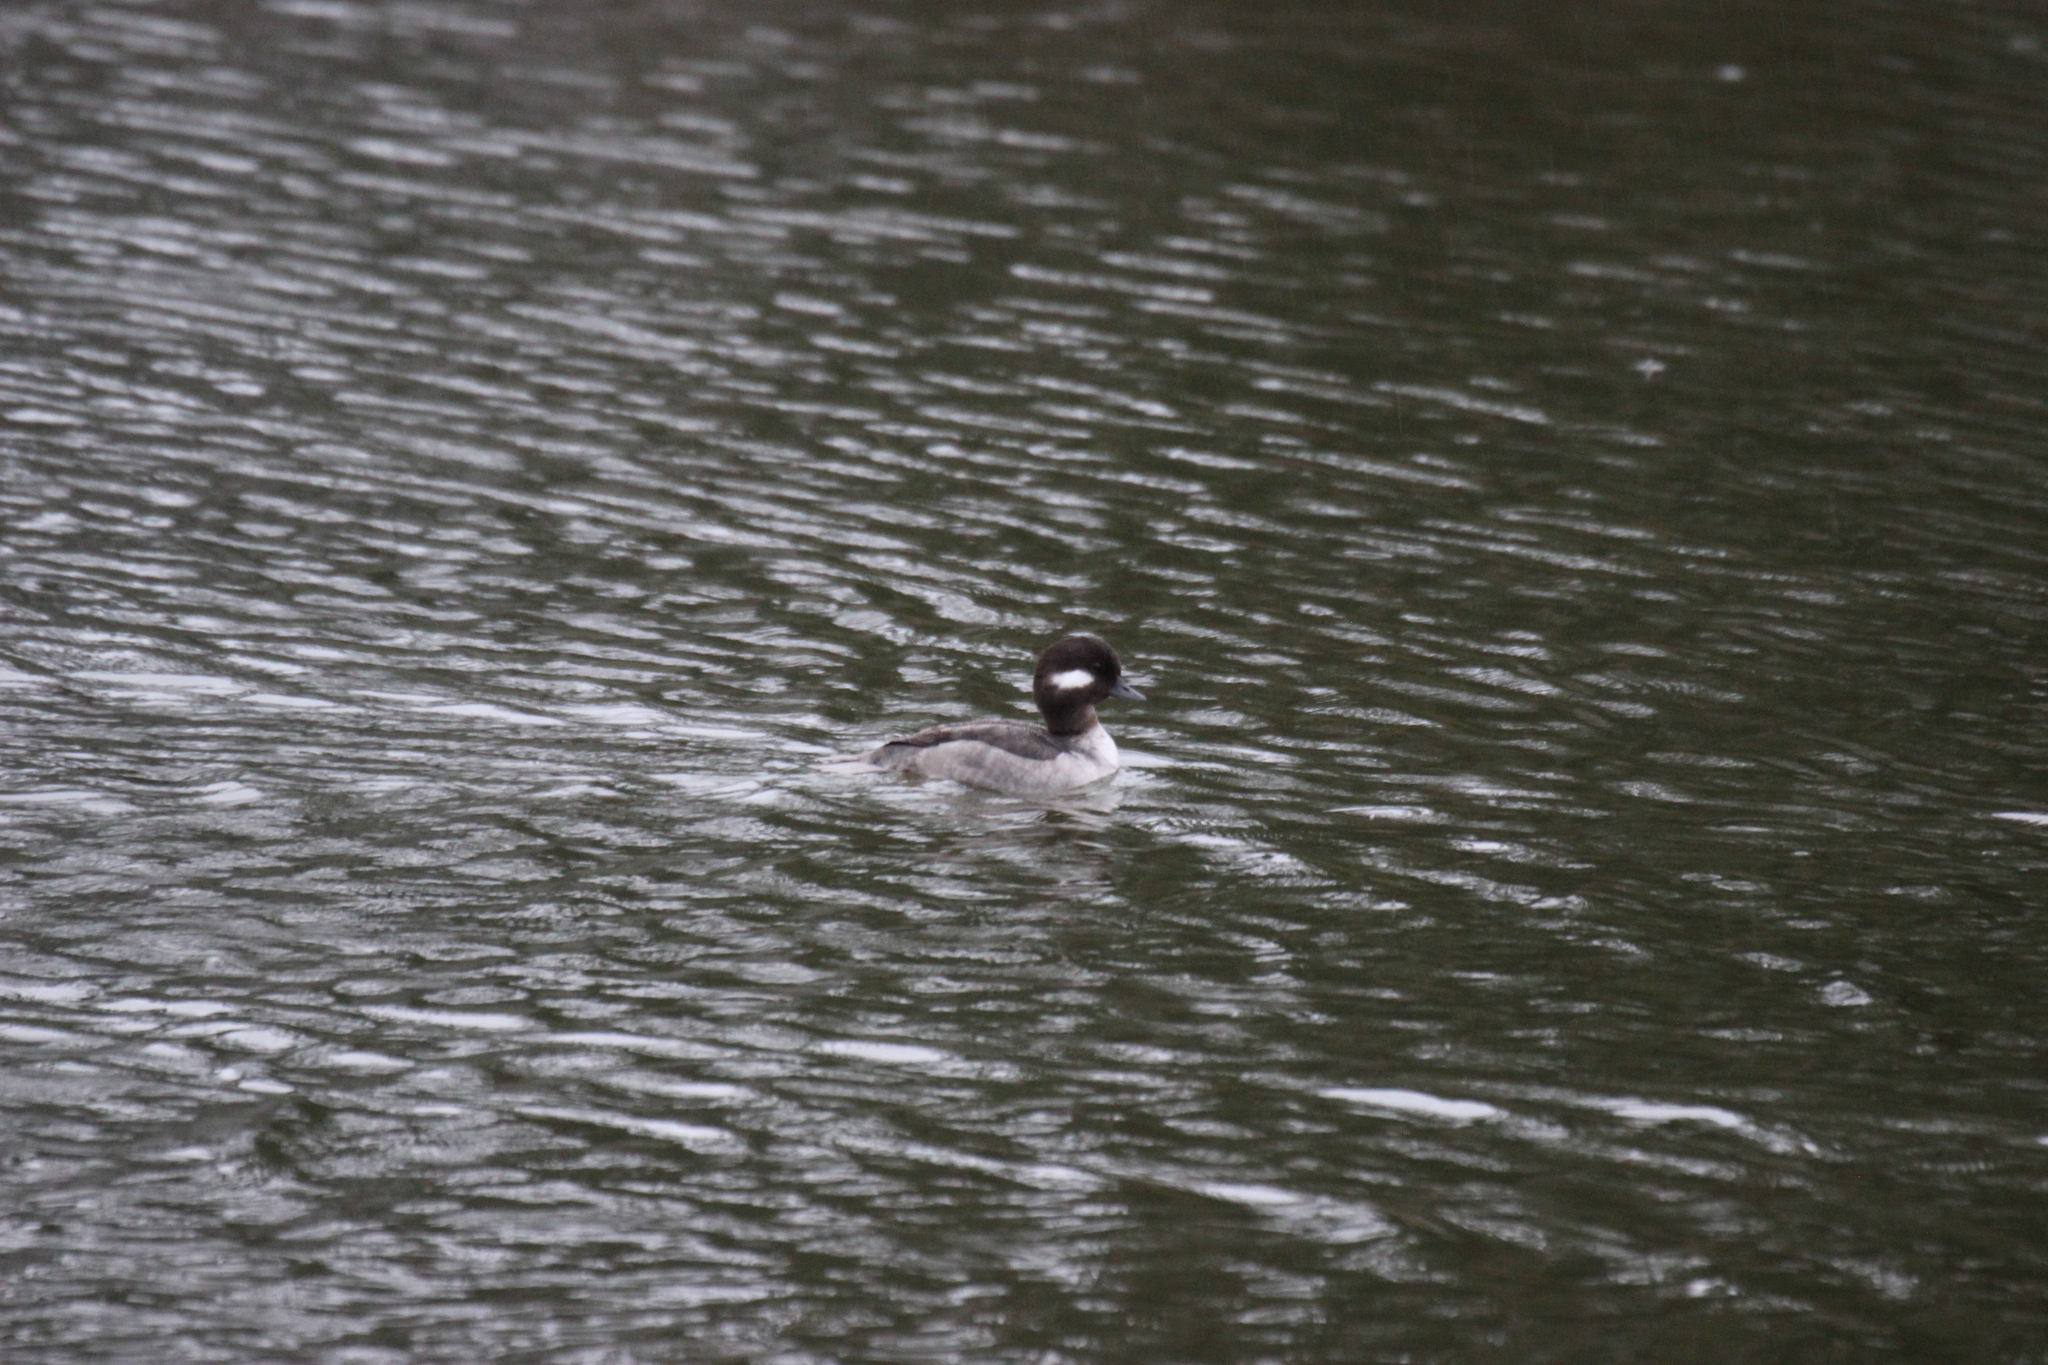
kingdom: Animalia
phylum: Chordata
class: Aves
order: Anseriformes
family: Anatidae
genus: Bucephala
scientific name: Bucephala albeola
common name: Bufflehead
